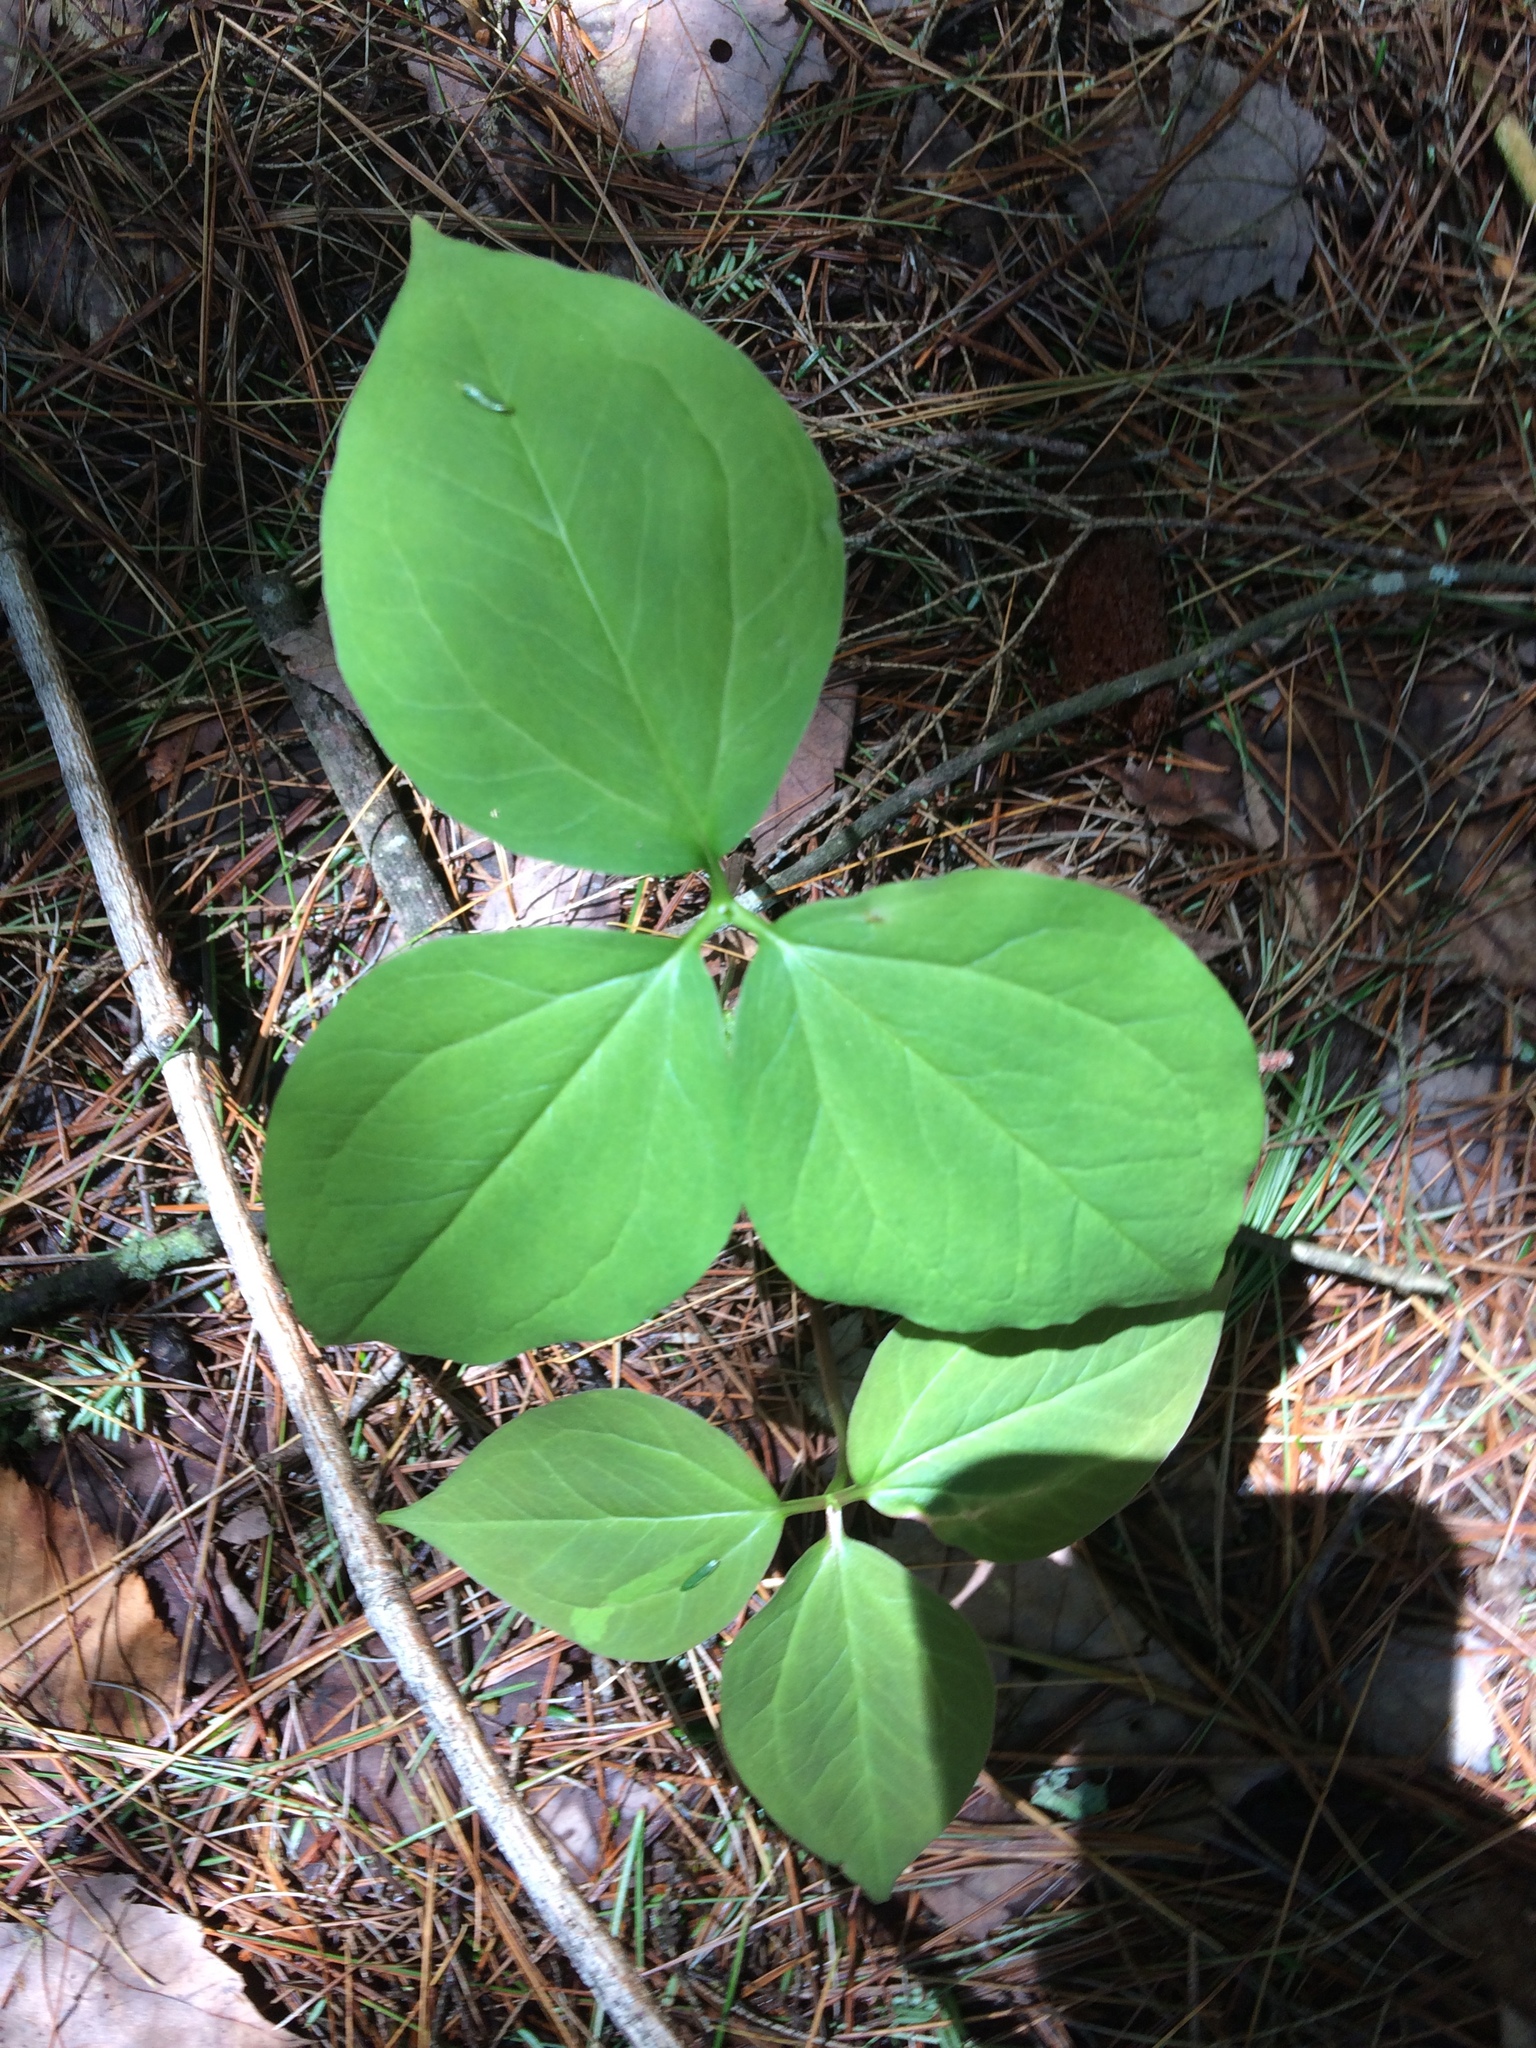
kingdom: Plantae
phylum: Tracheophyta
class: Liliopsida
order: Liliales
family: Melanthiaceae
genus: Trillium
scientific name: Trillium undulatum
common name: Paint trillium
